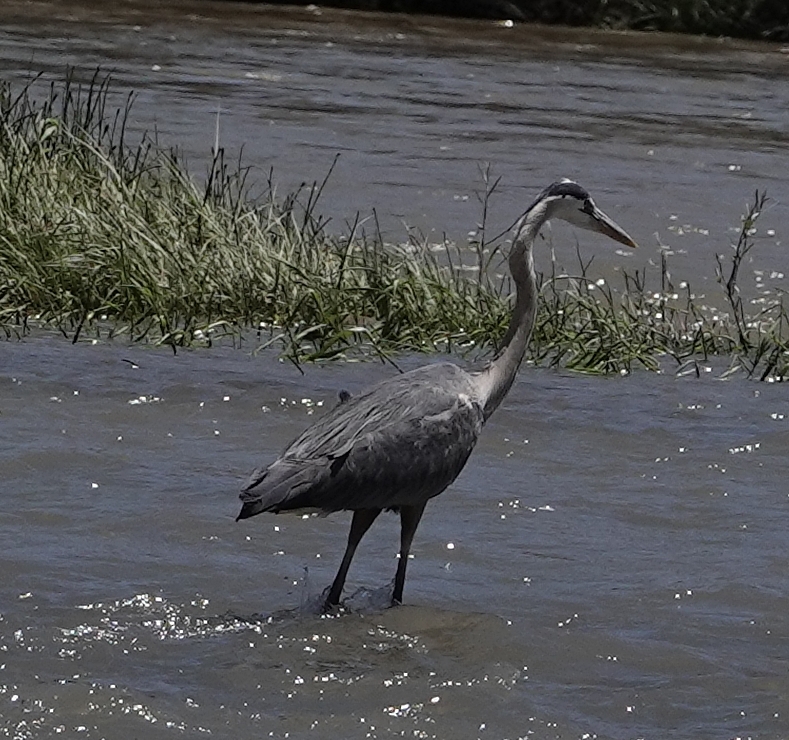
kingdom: Animalia
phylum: Chordata
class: Aves
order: Pelecaniformes
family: Ardeidae
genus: Ardea
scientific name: Ardea herodias
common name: Great blue heron
